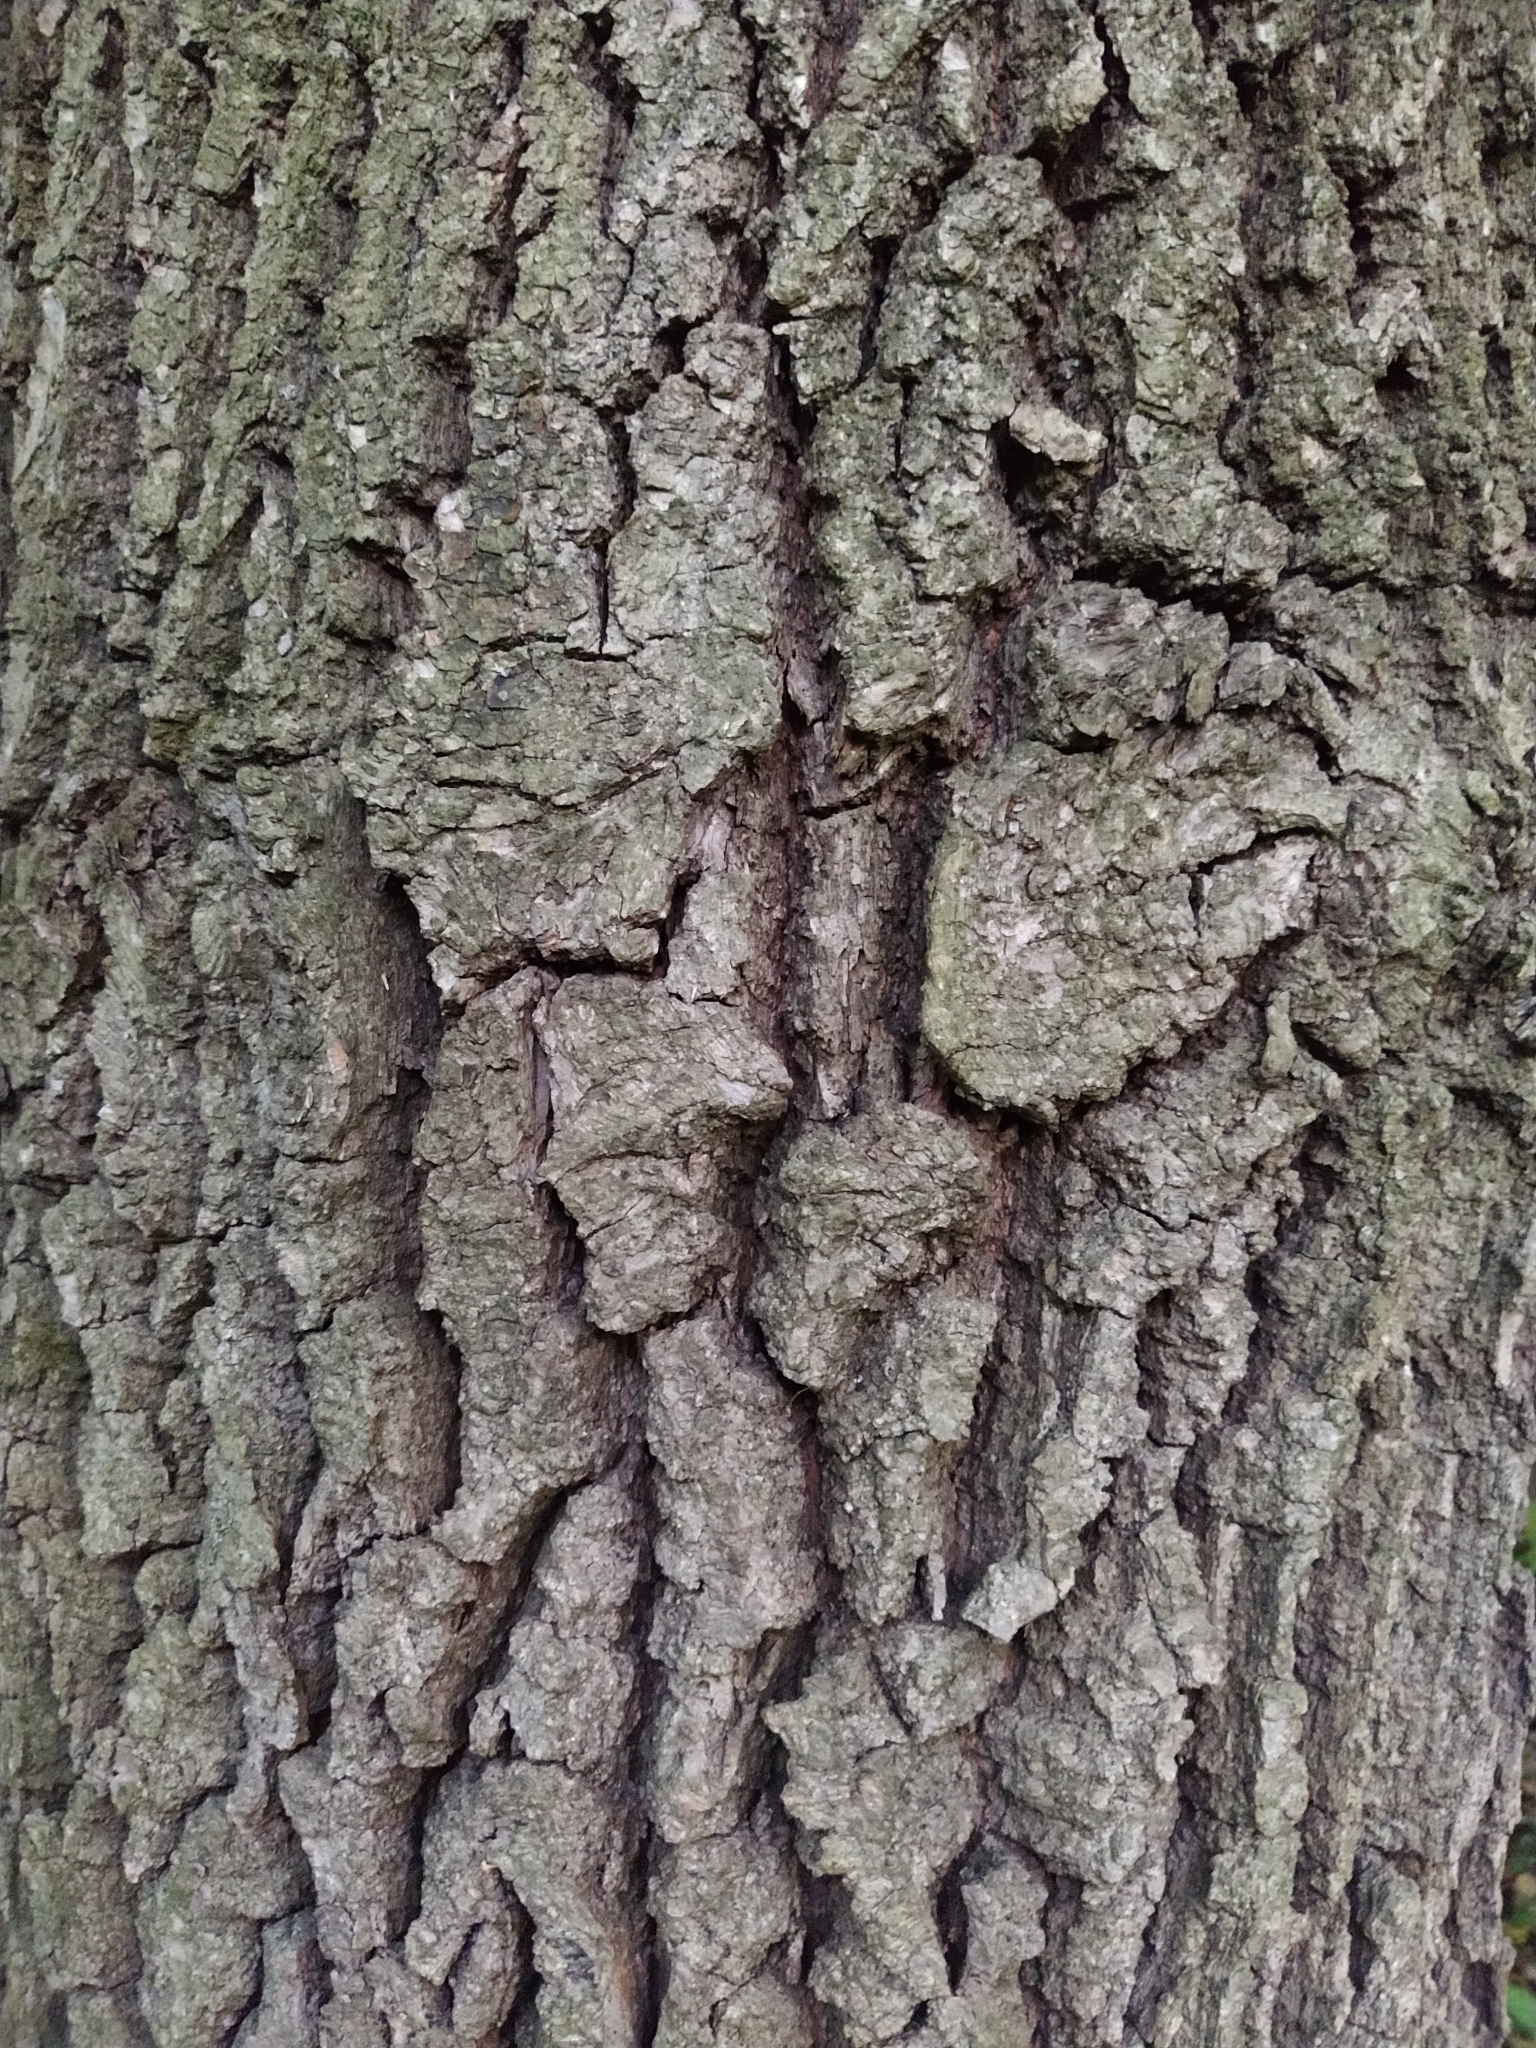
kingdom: Plantae
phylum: Tracheophyta
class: Magnoliopsida
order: Fagales
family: Fagaceae
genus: Quercus
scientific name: Quercus robur
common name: Pedunculate oak
